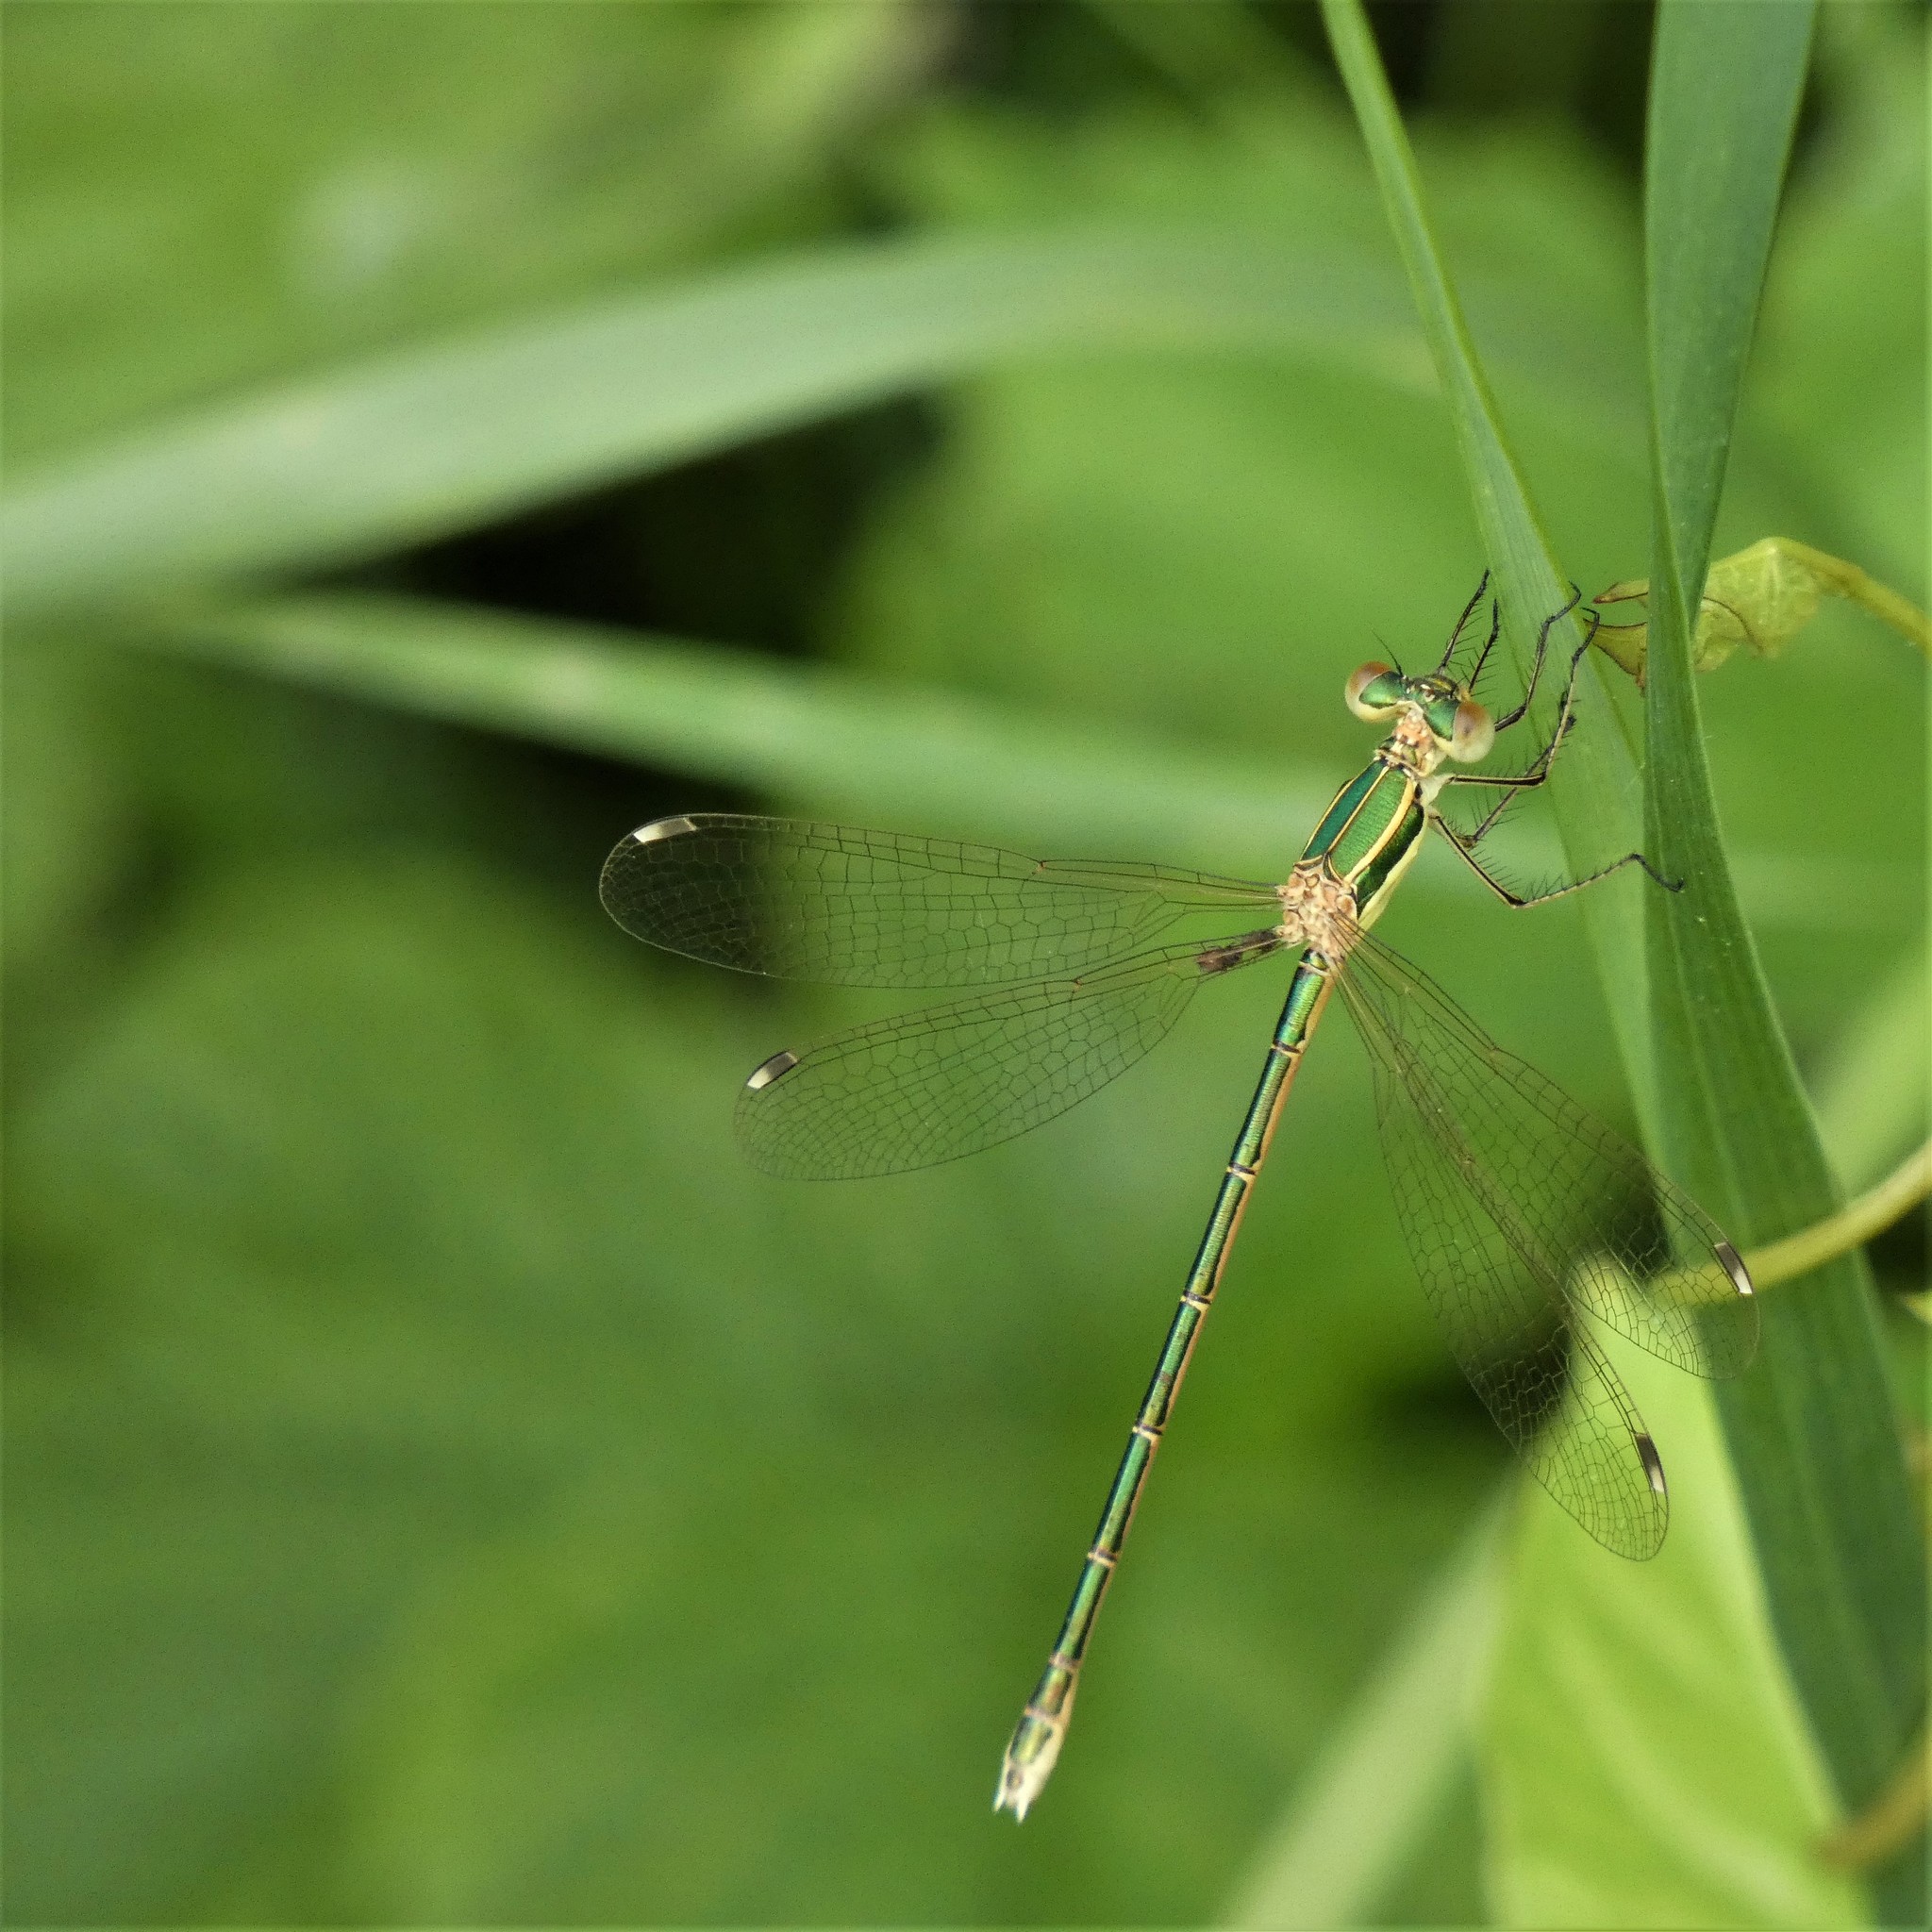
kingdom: Animalia
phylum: Arthropoda
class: Insecta
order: Odonata
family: Lestidae
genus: Lestes
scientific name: Lestes barbarus
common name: Migrant spreadwing
